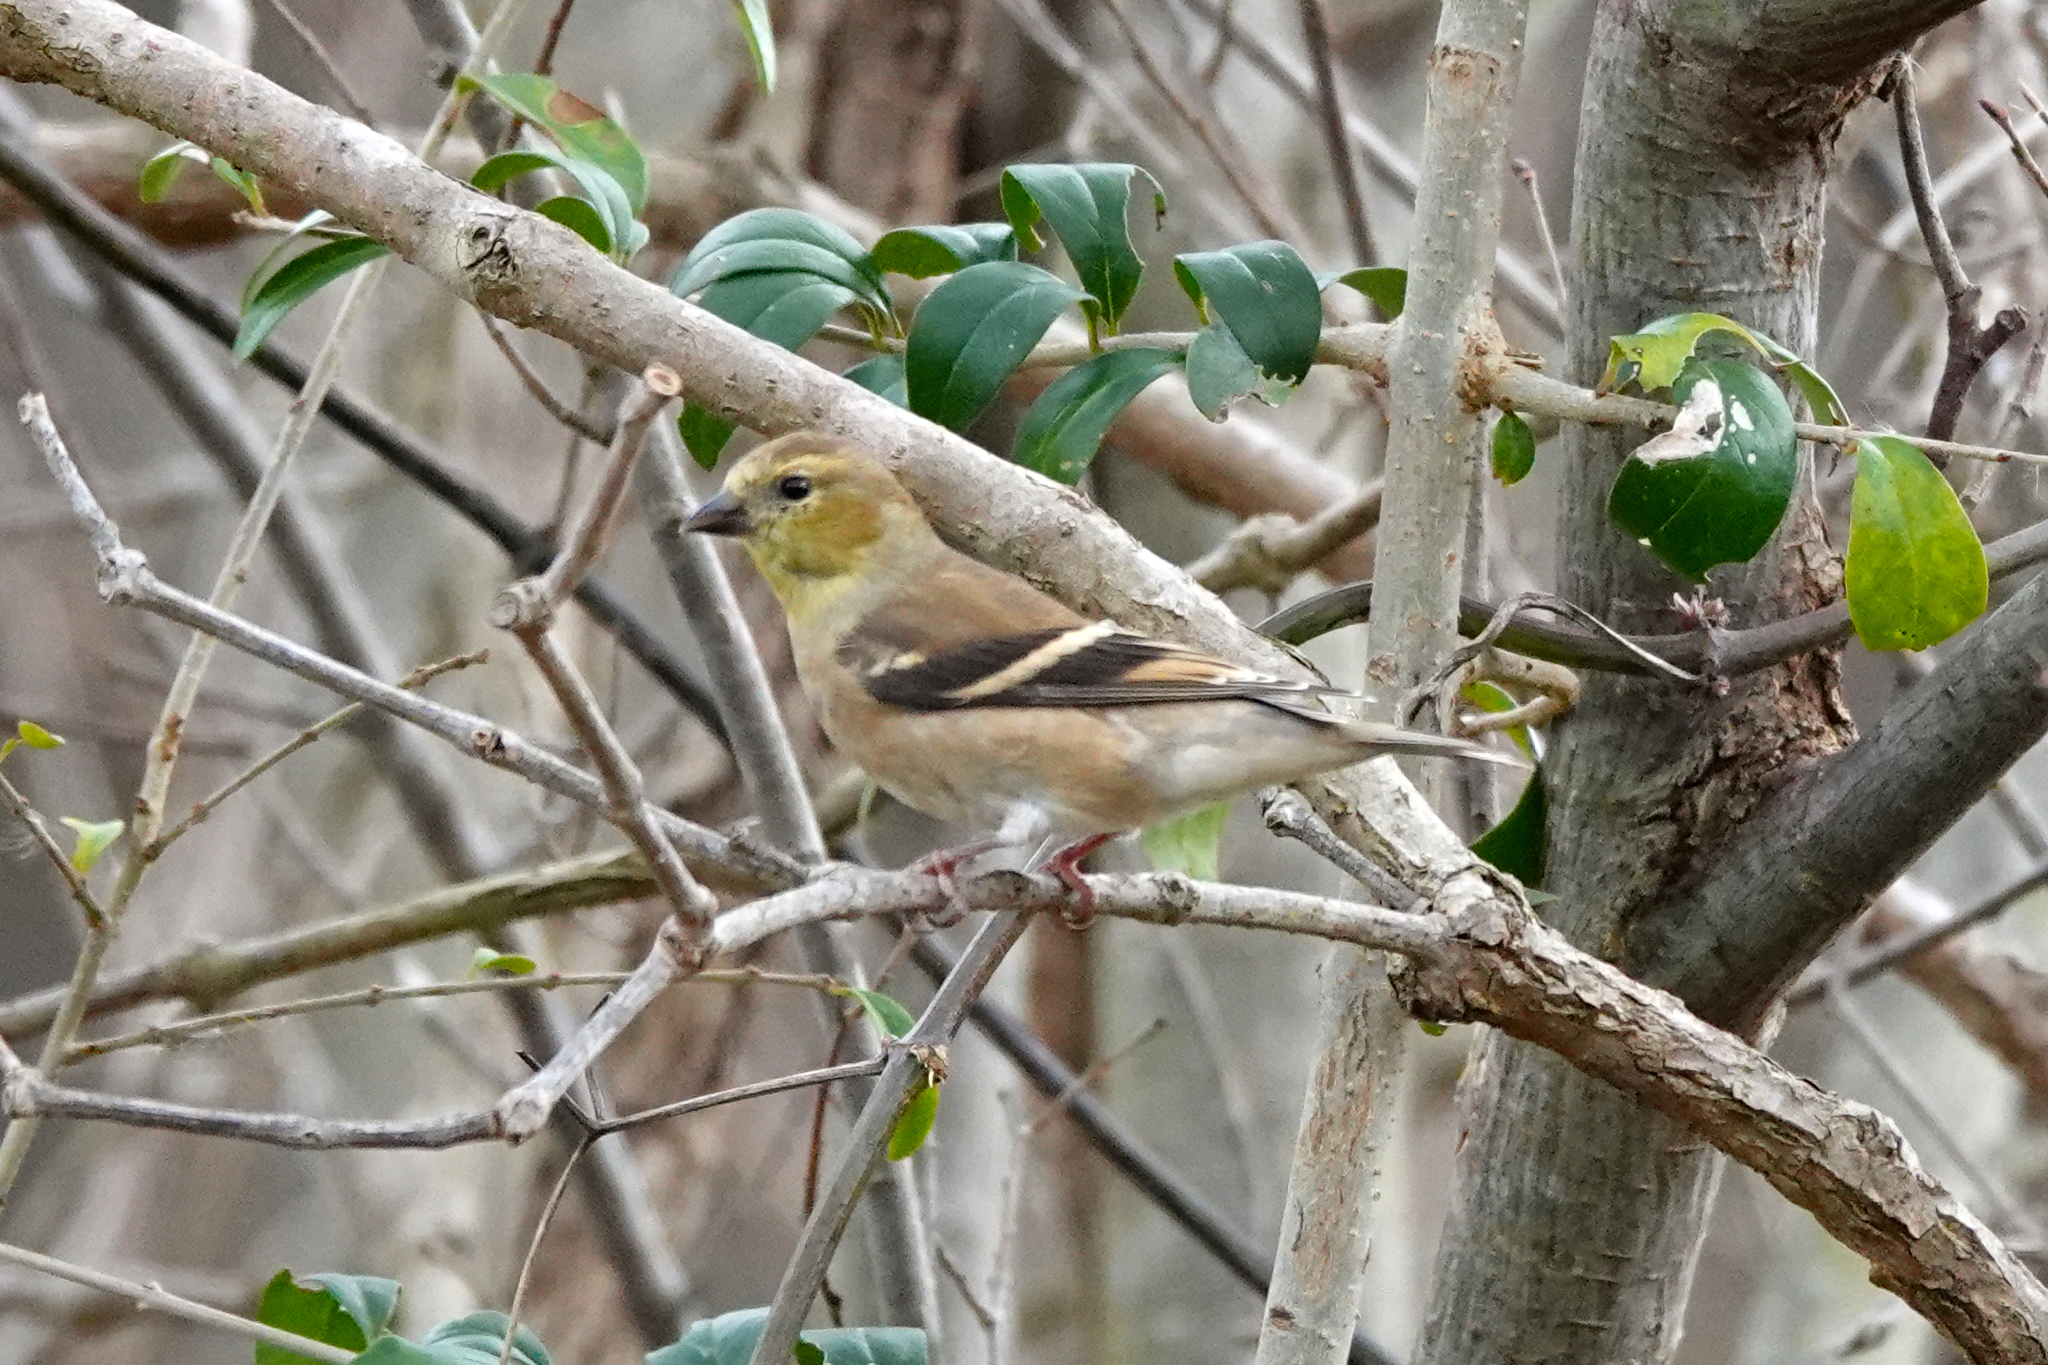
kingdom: Animalia
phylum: Chordata
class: Aves
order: Passeriformes
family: Fringillidae
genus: Spinus
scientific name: Spinus tristis
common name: American goldfinch
